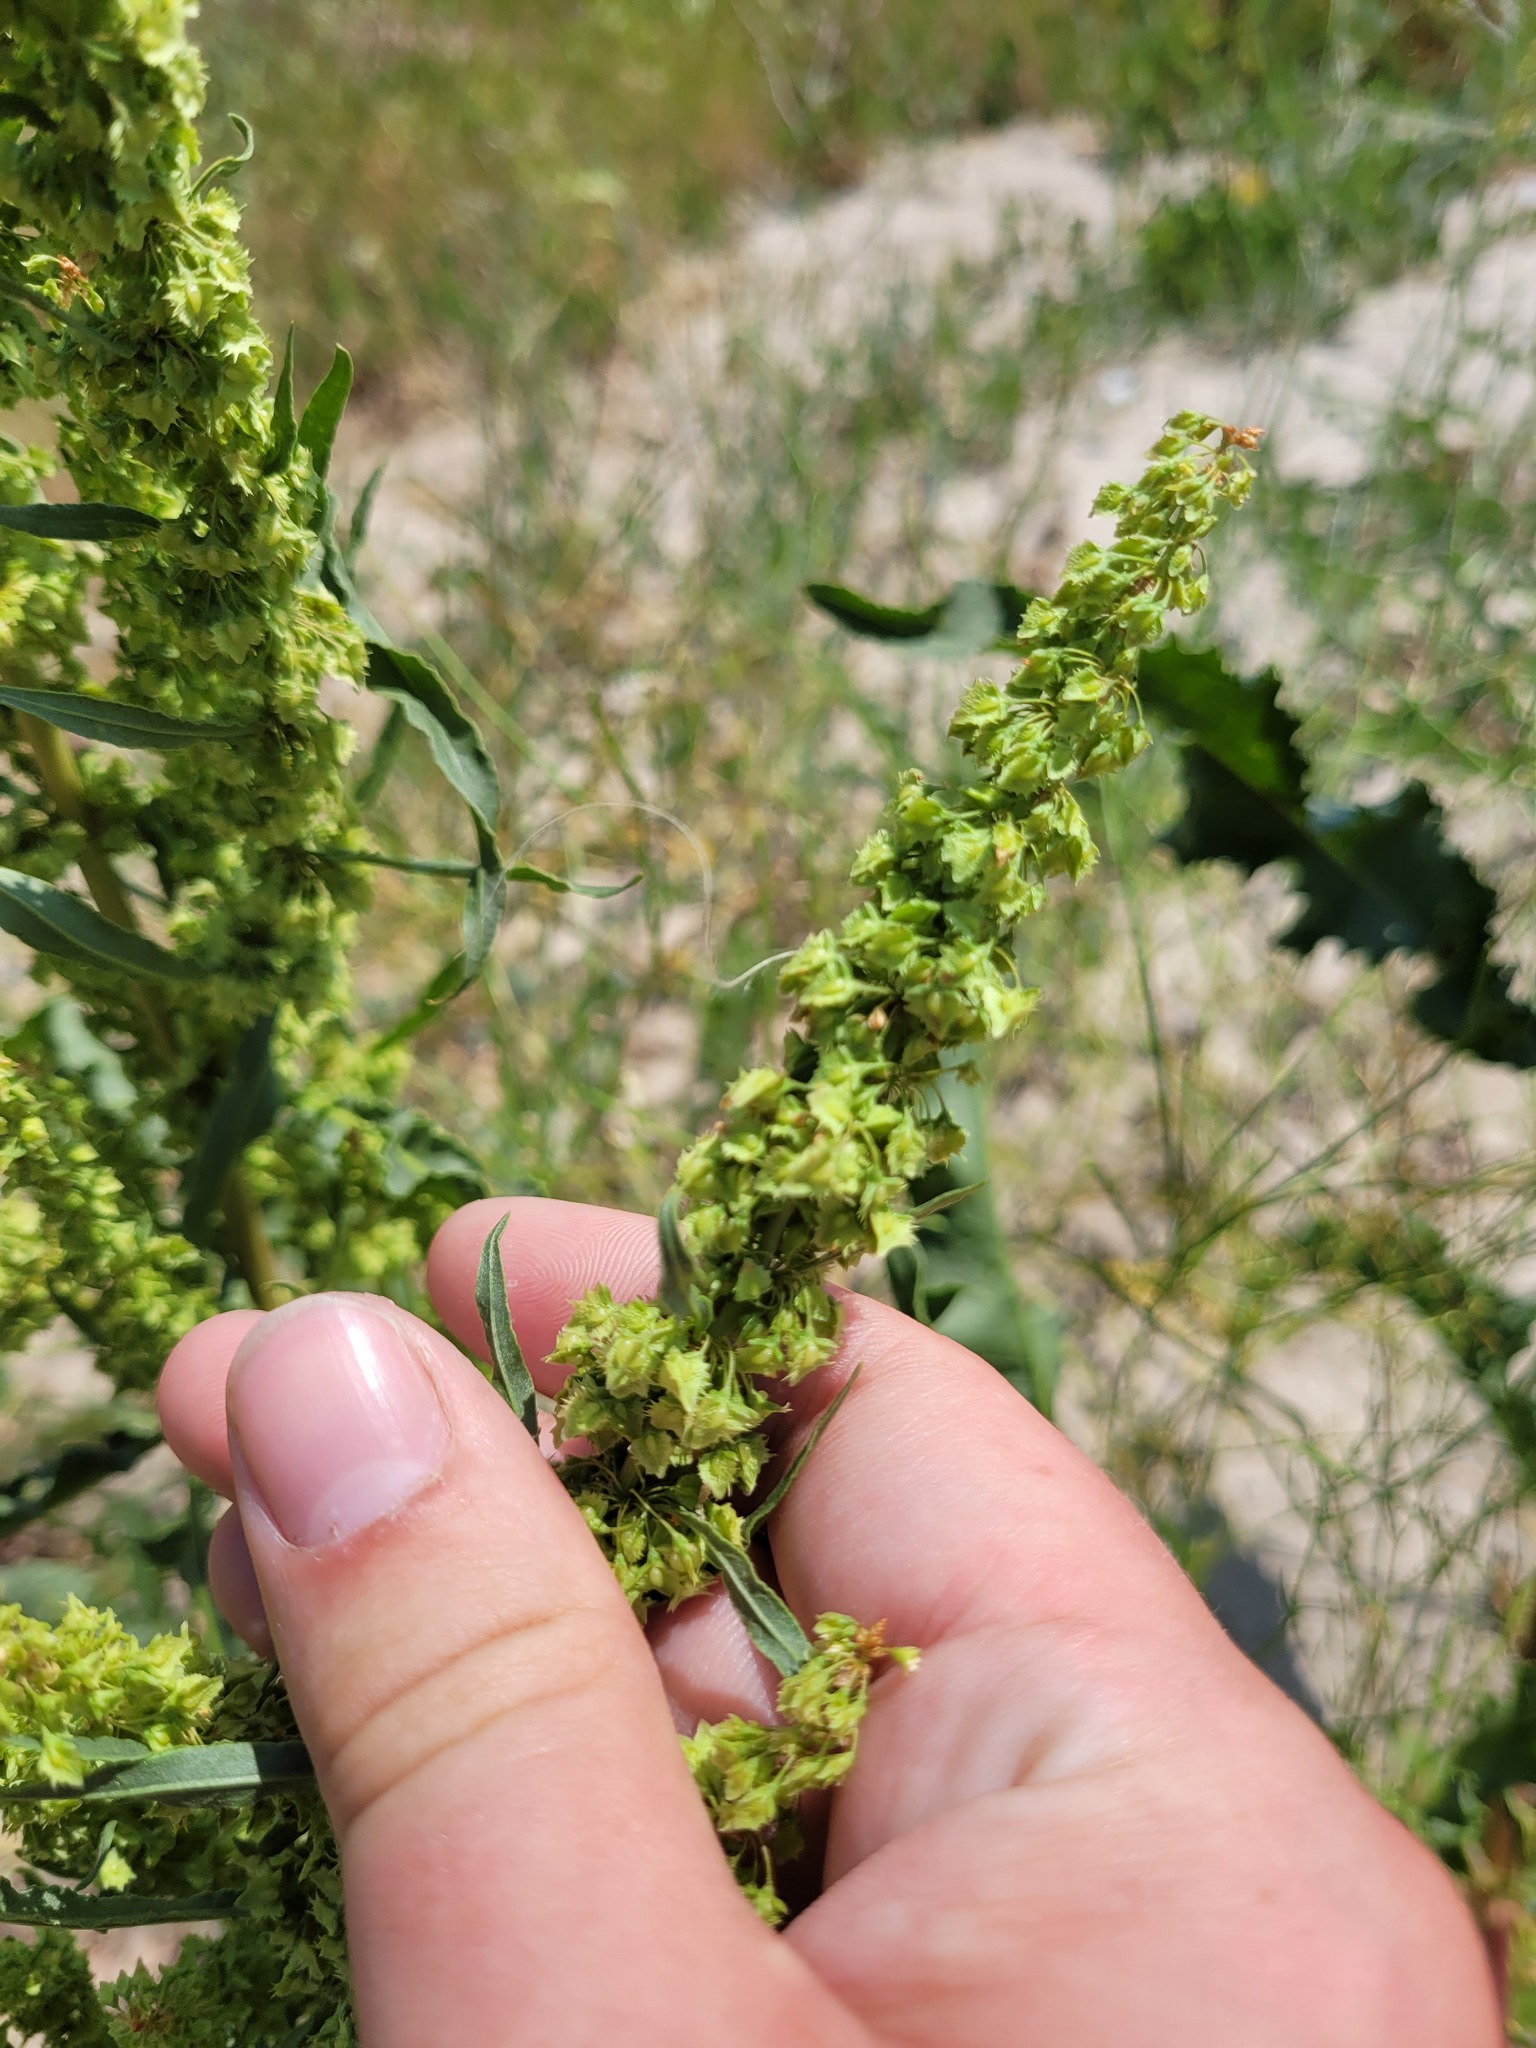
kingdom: Plantae
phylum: Tracheophyta
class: Magnoliopsida
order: Caryophyllales
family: Polygonaceae
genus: Rumex
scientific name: Rumex stenophyllus
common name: Narrowleaf dock
